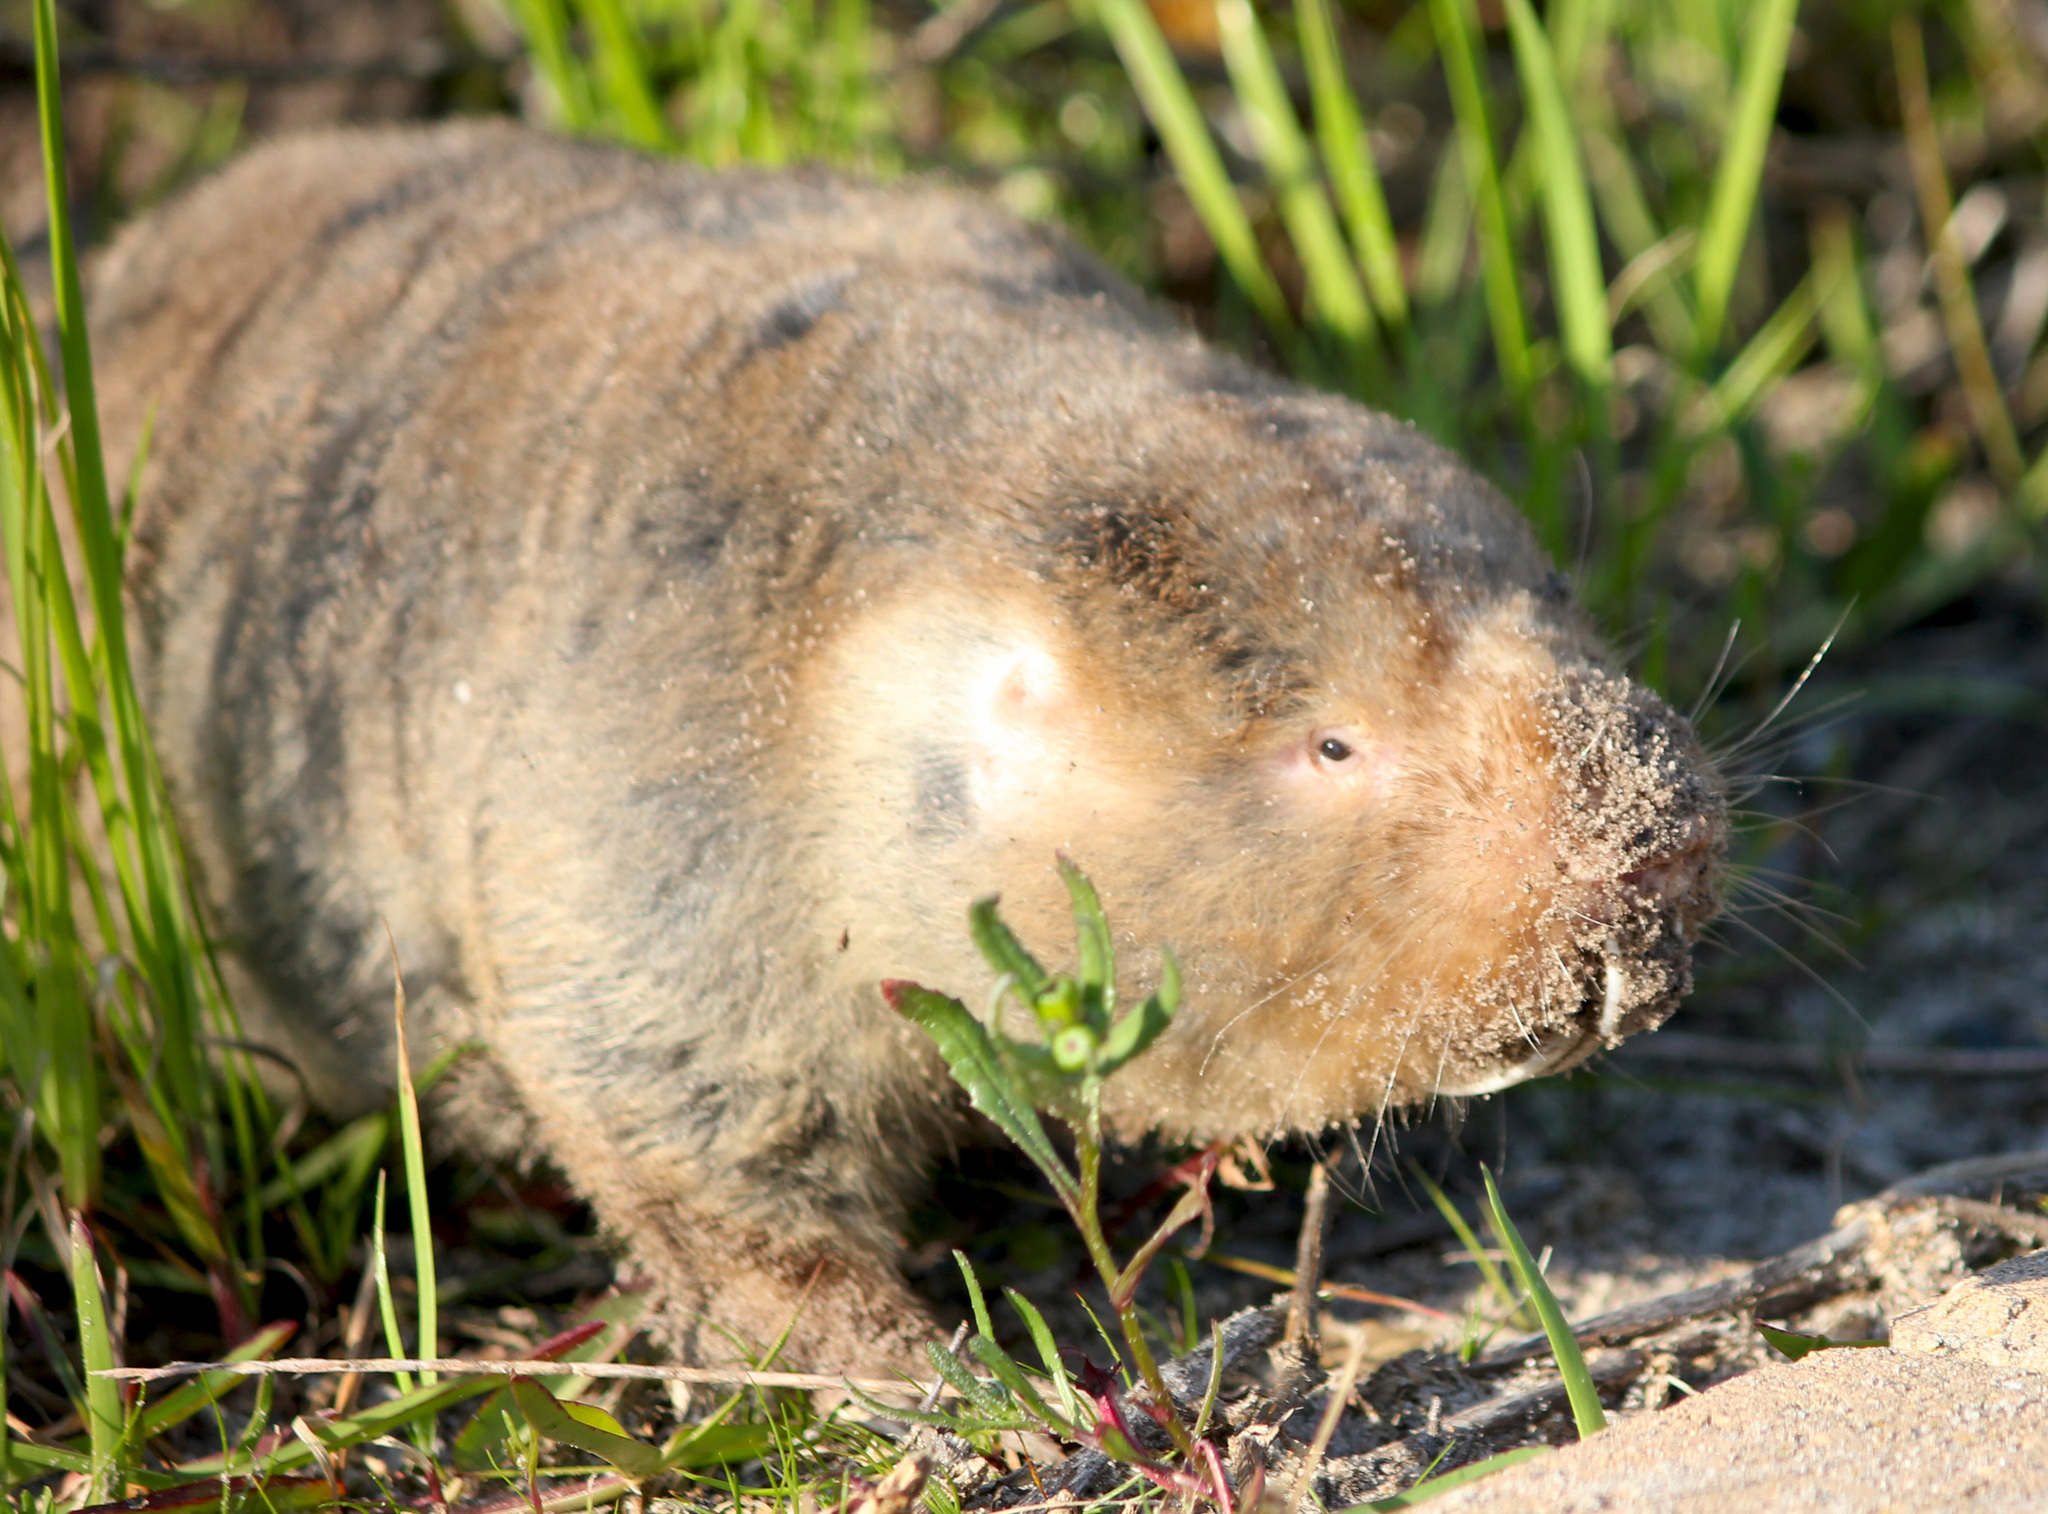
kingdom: Animalia
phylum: Chordata
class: Mammalia
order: Rodentia
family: Bathyergidae
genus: Bathyergus
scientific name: Bathyergus suillus
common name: Cape dune mole rat
